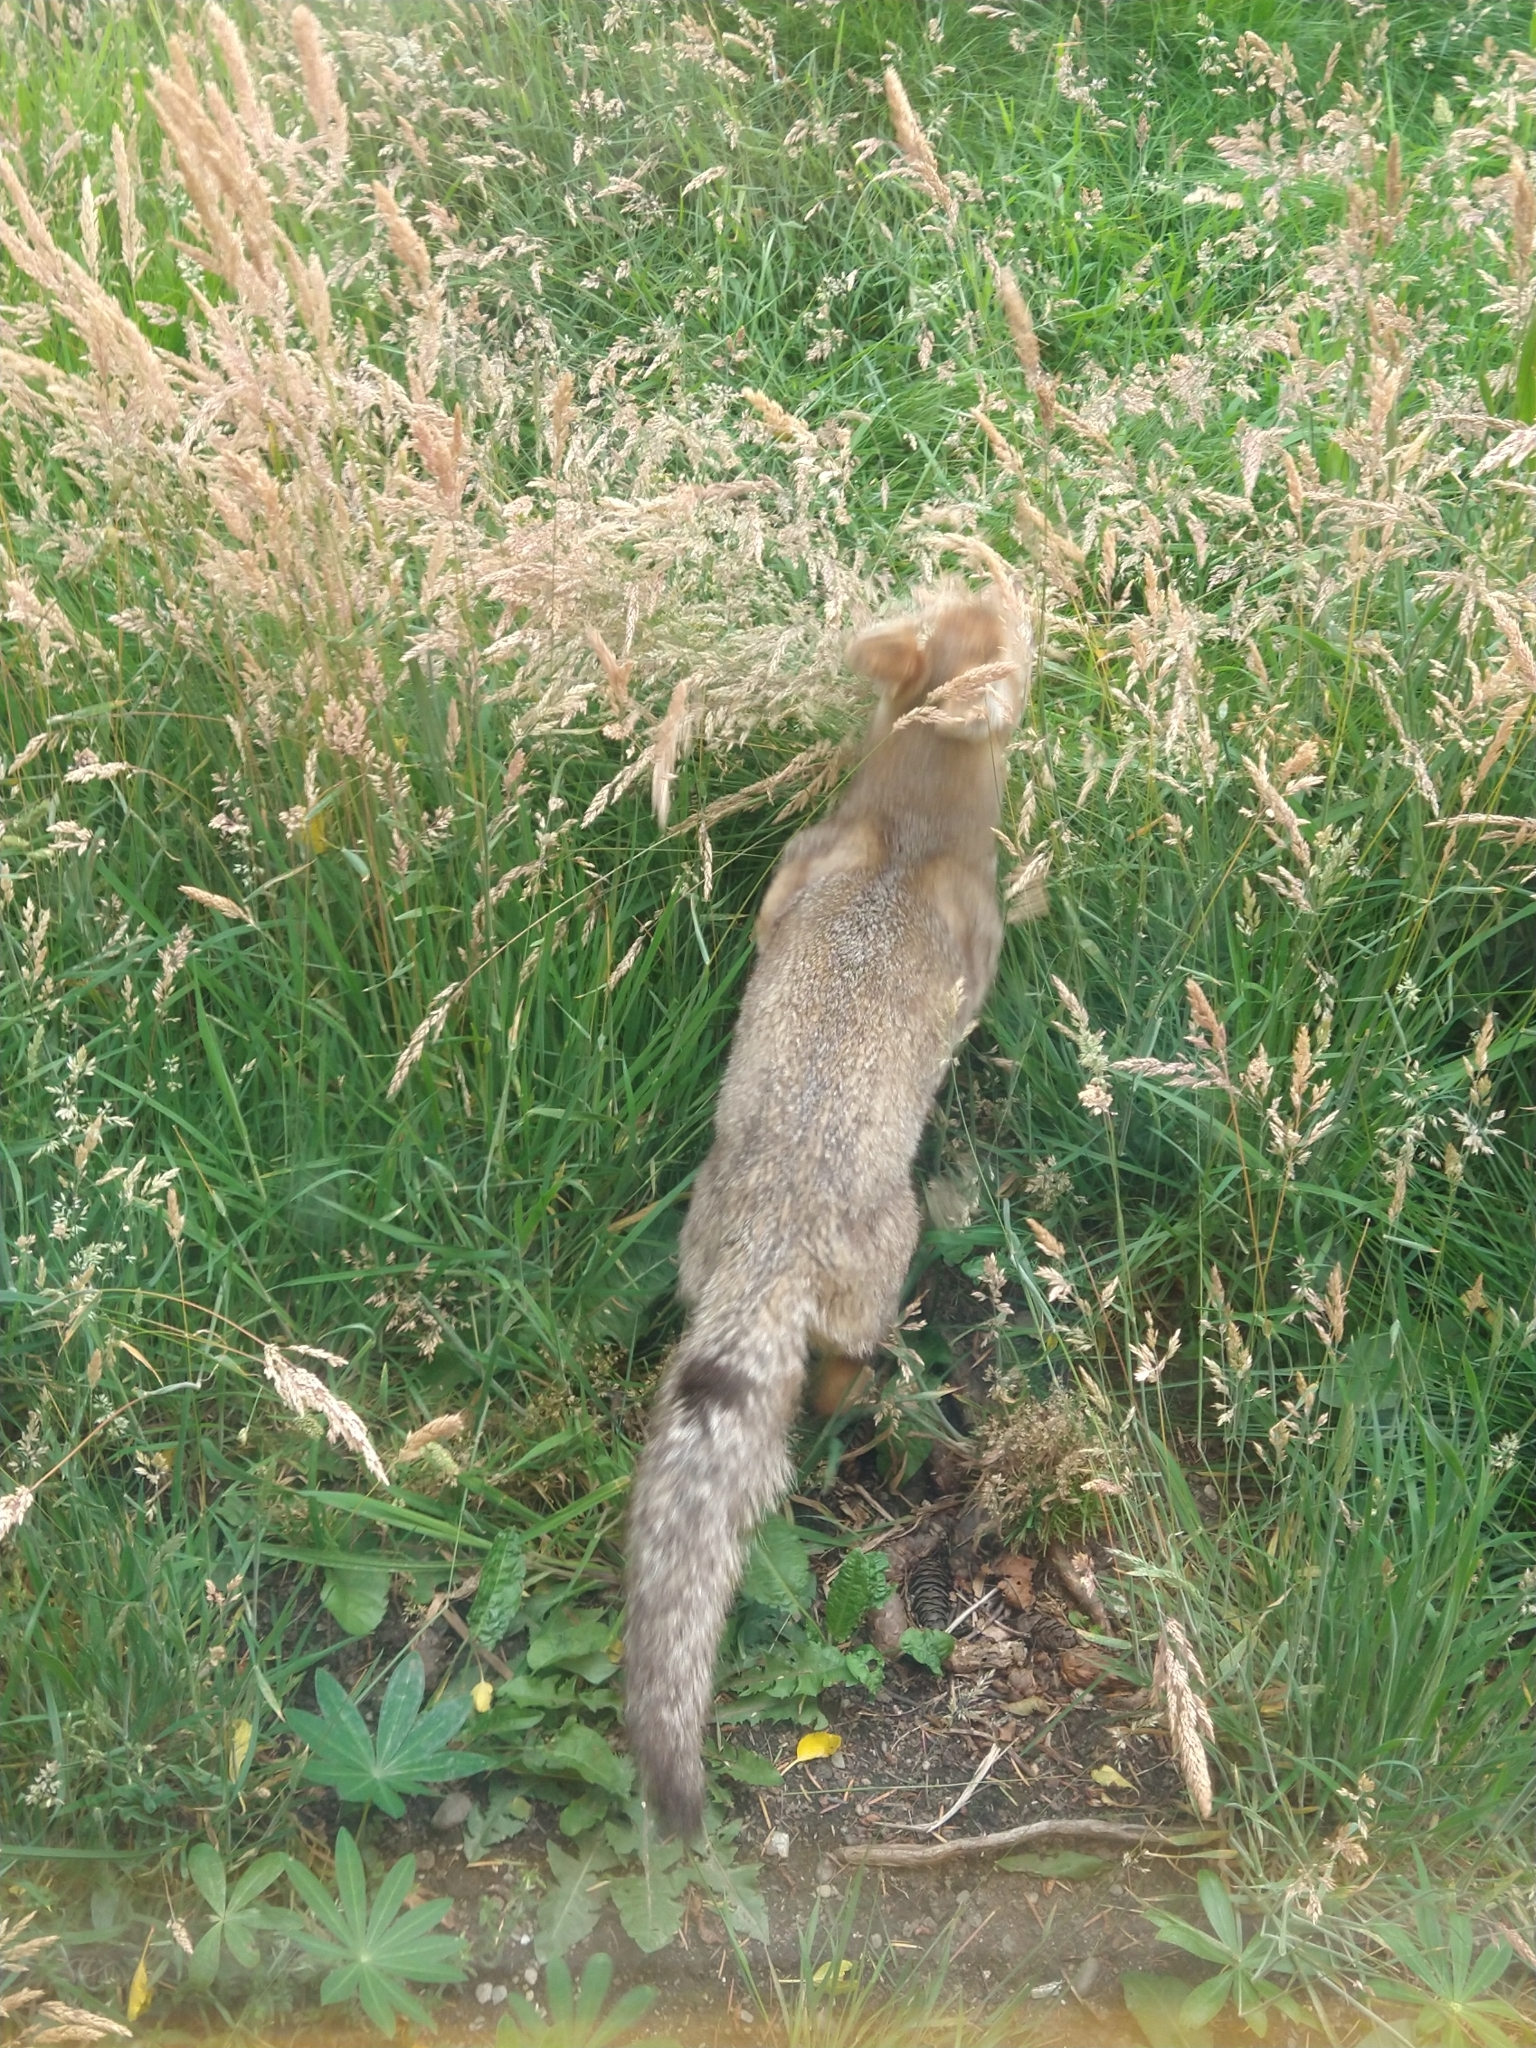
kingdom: Animalia
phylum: Chordata
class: Mammalia
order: Carnivora
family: Canidae
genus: Lycalopex
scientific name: Lycalopex gymnocercus
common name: Pampas fox
